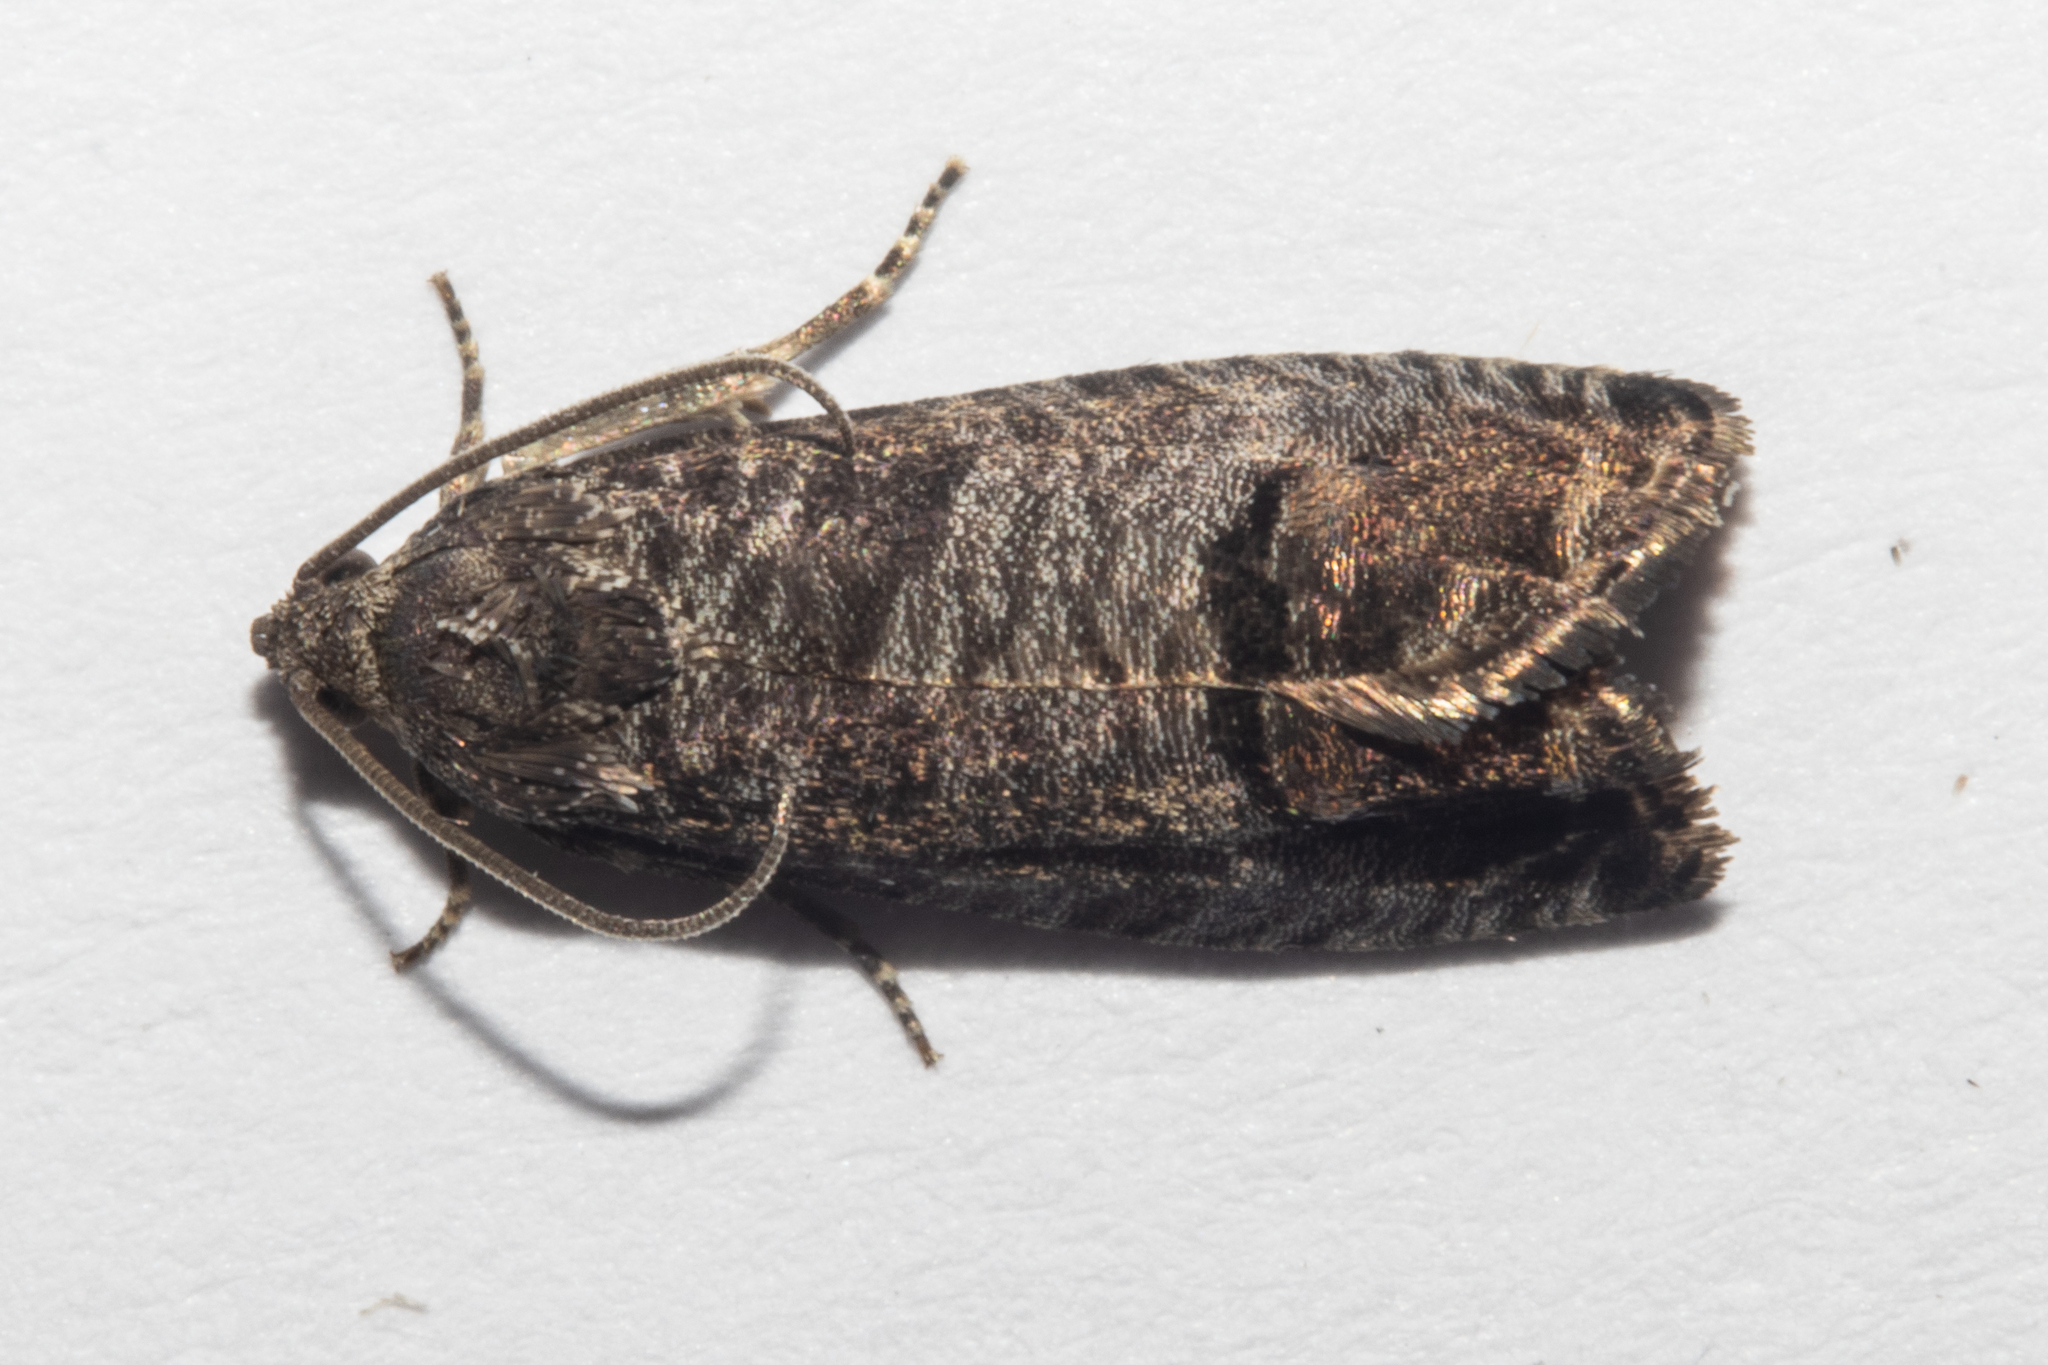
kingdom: Animalia
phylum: Arthropoda
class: Insecta
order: Lepidoptera
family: Tortricidae
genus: Cydia
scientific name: Cydia pomonella
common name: Codling moth
